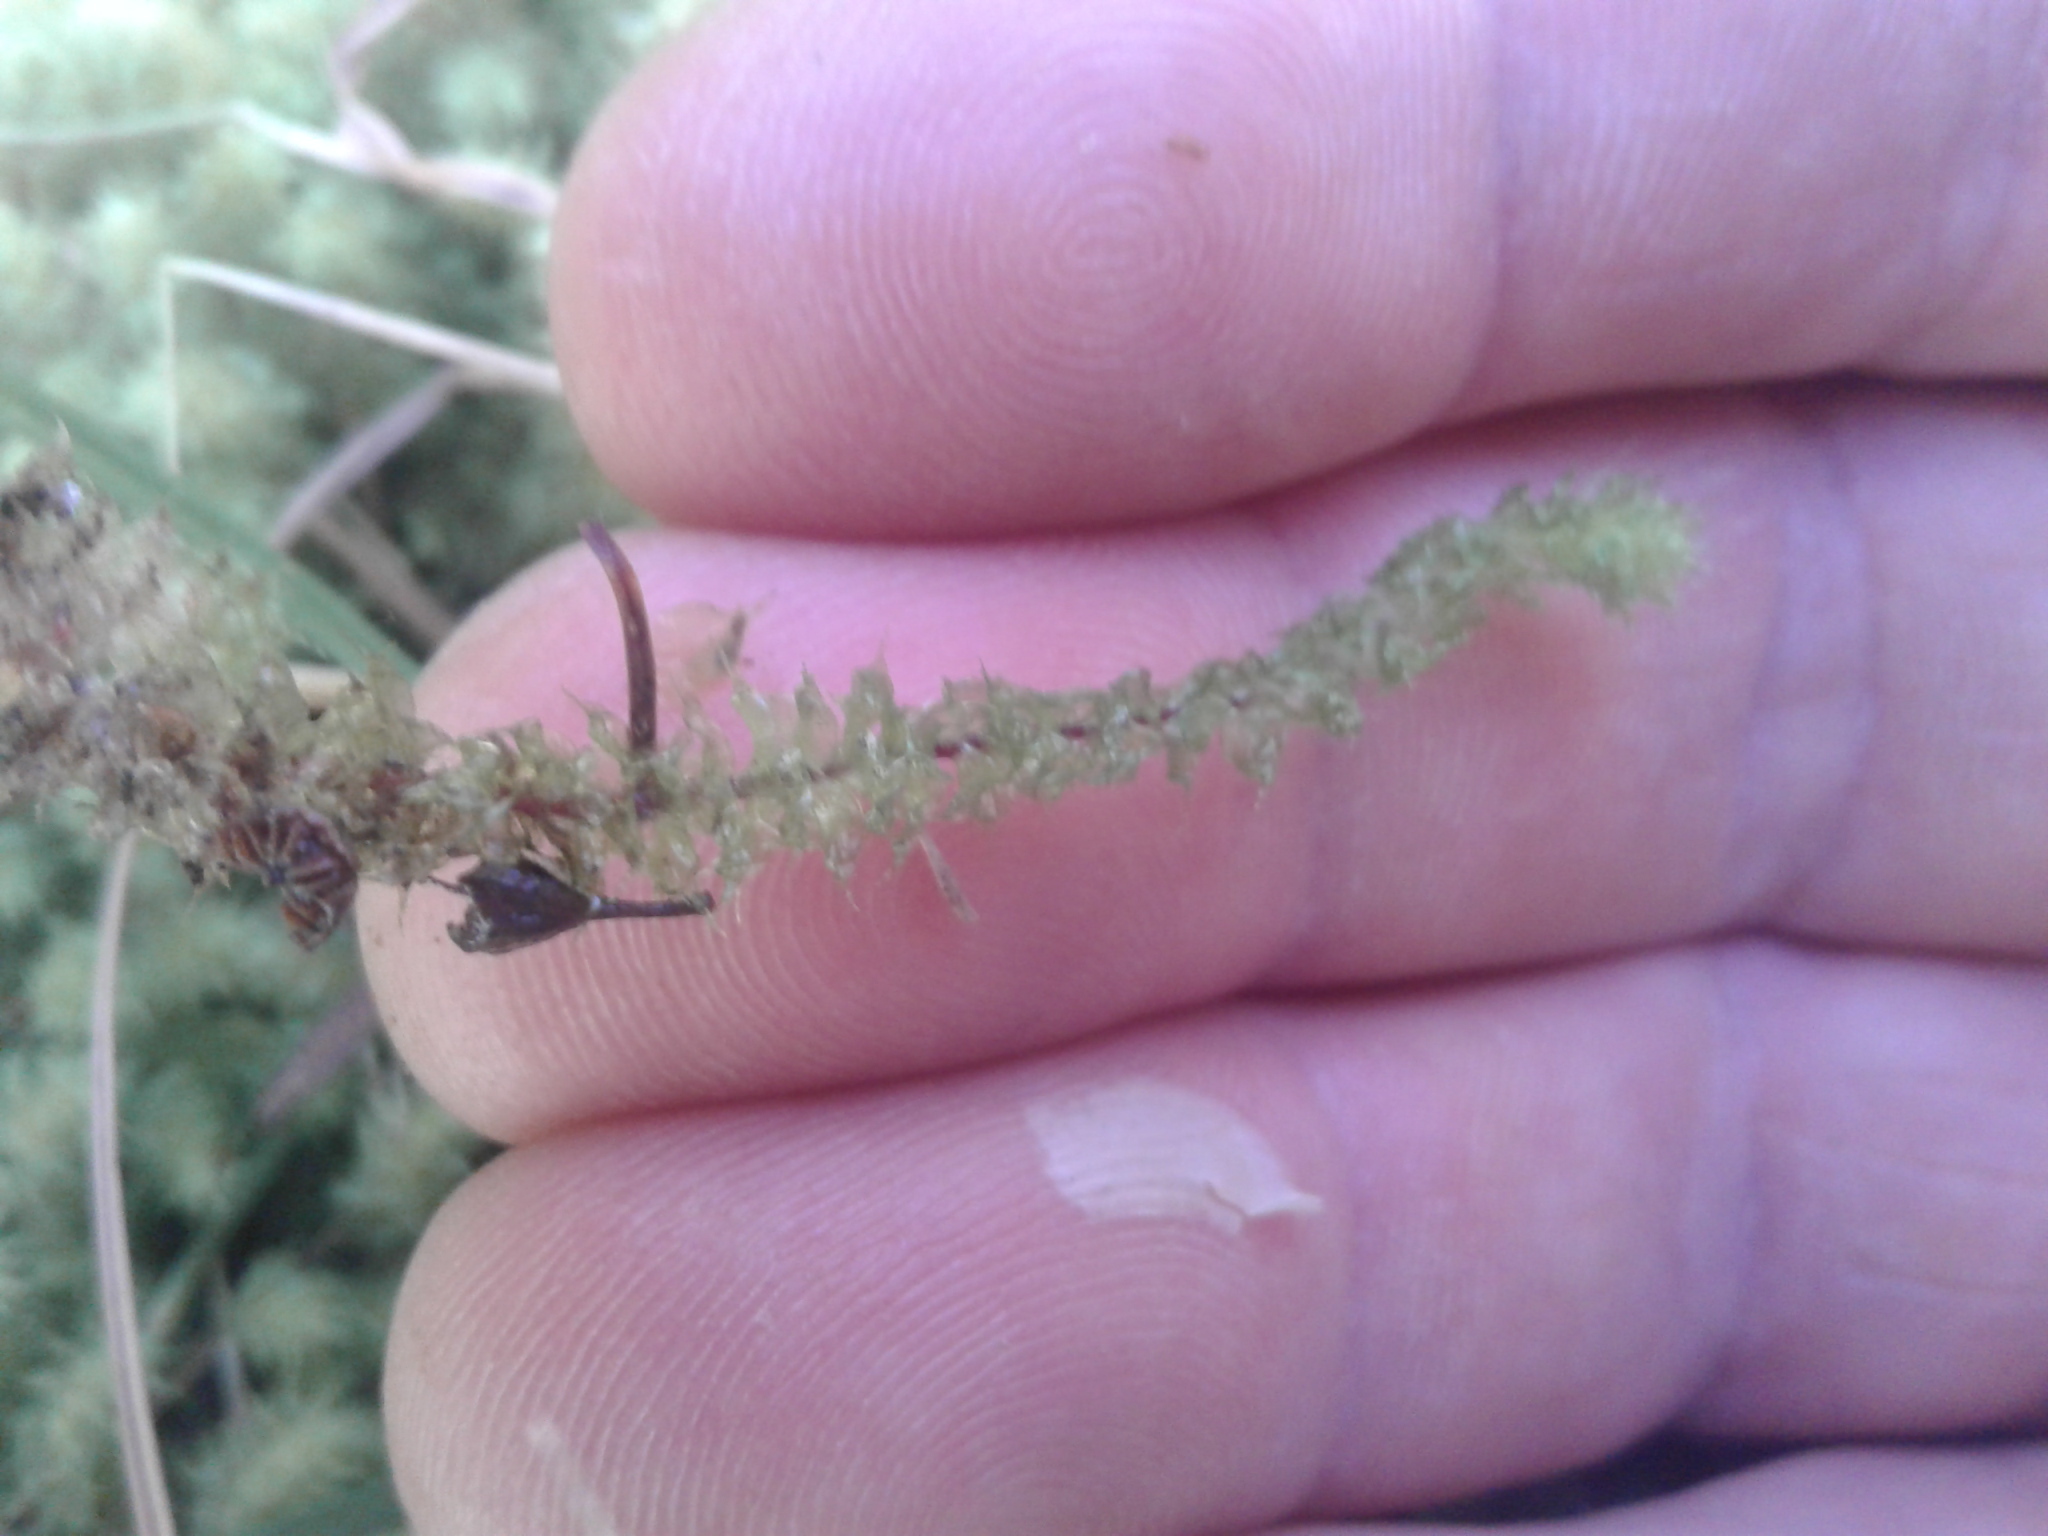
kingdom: Plantae
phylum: Bryophyta
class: Bryopsida
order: Ptychomniales
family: Ptychomniaceae
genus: Ptychomnion
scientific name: Ptychomnion aciculare
